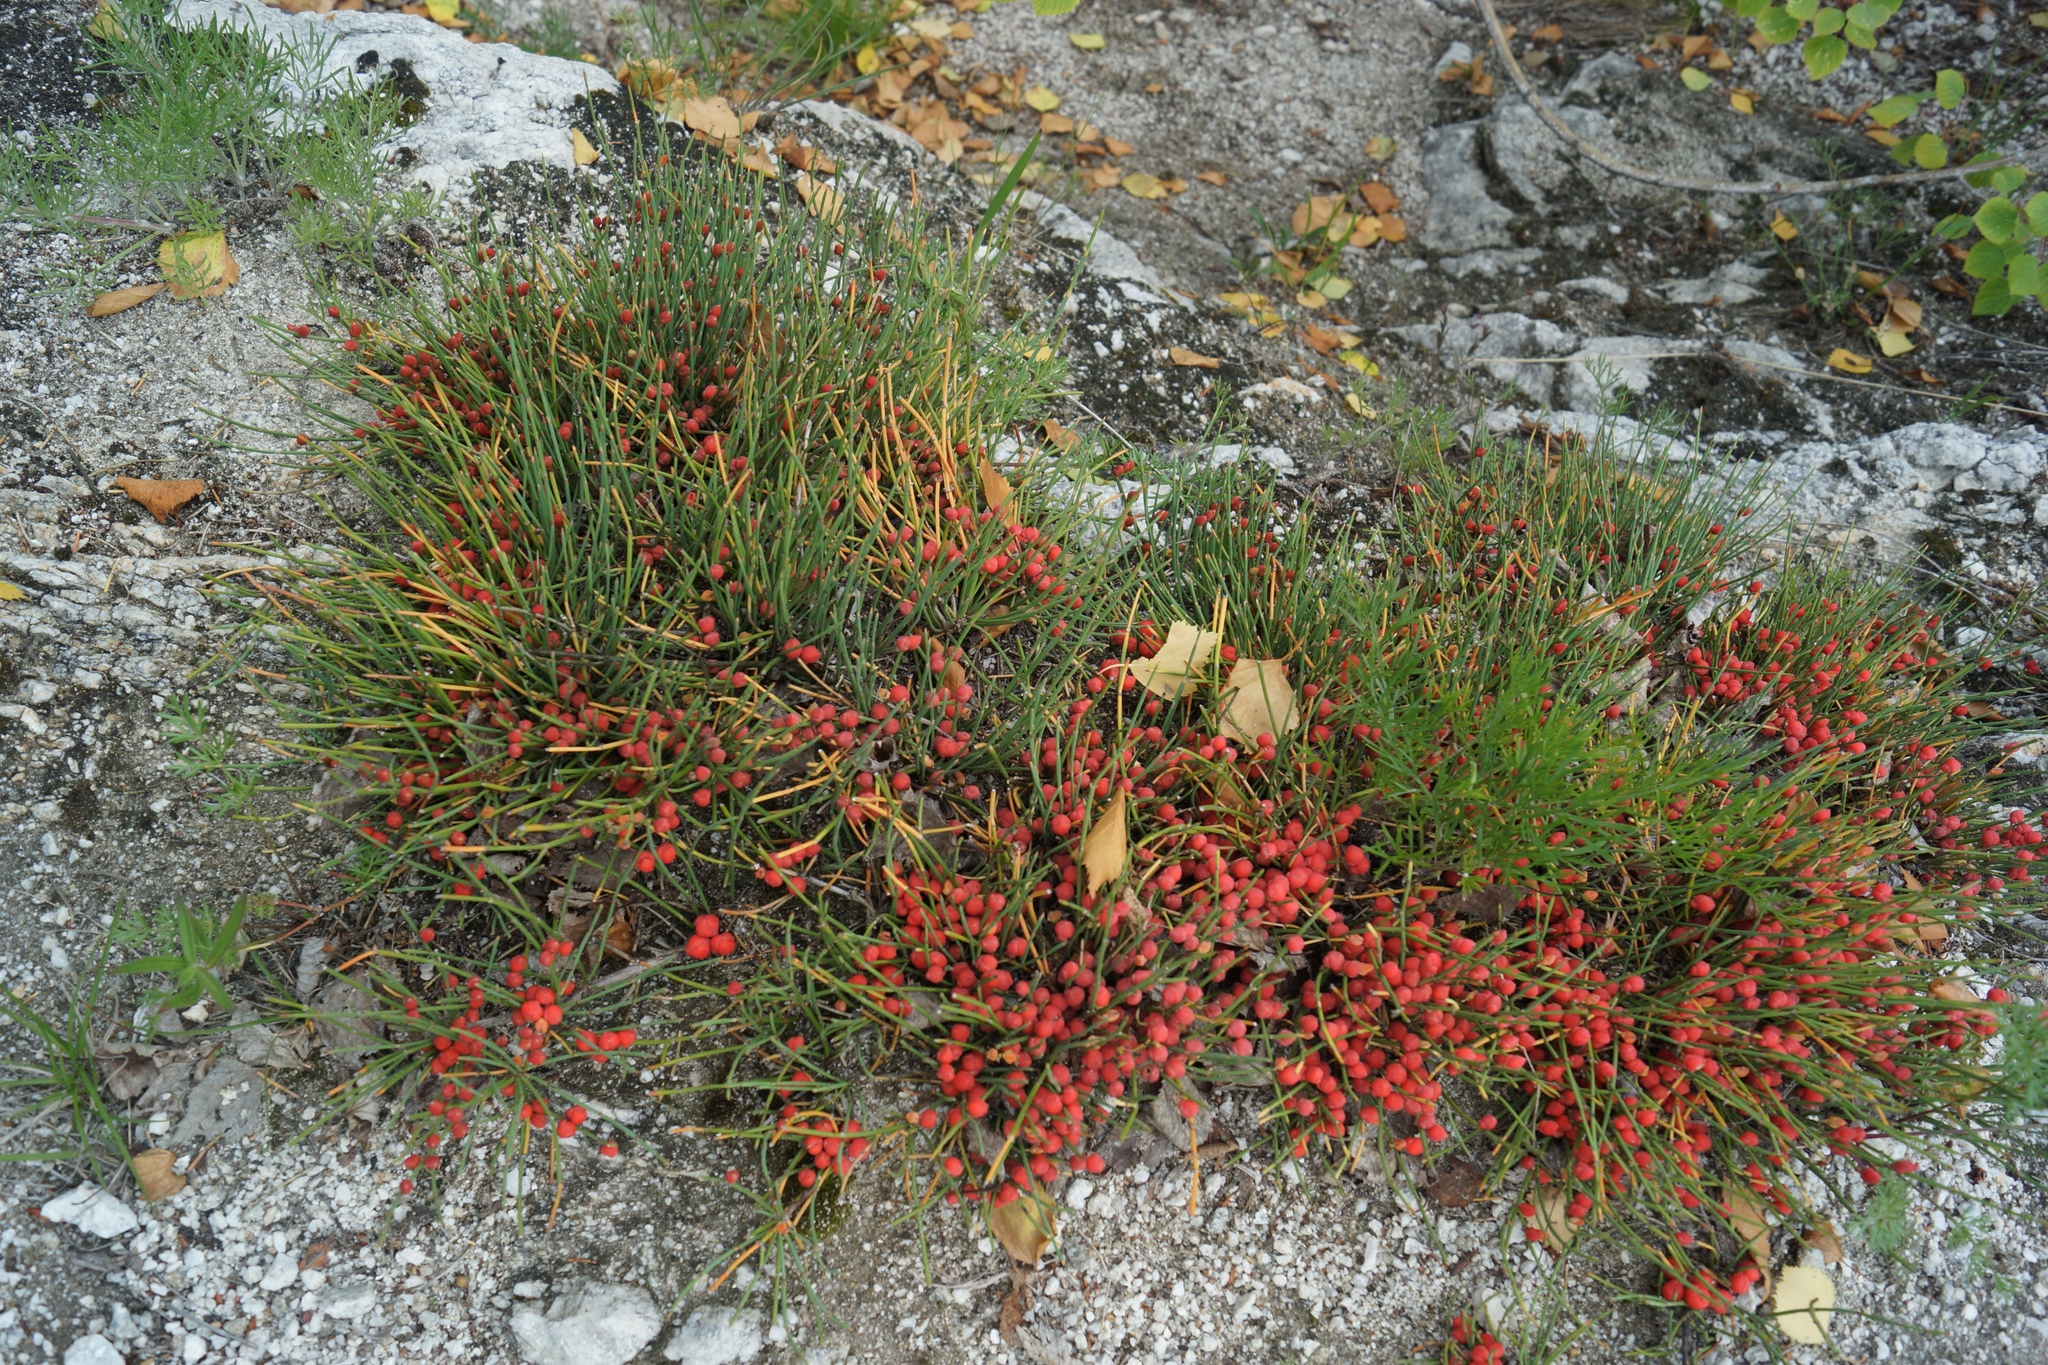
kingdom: Plantae
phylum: Tracheophyta
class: Gnetopsida
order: Ephedrales
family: Ephedraceae
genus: Ephedra
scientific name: Ephedra monosperma
